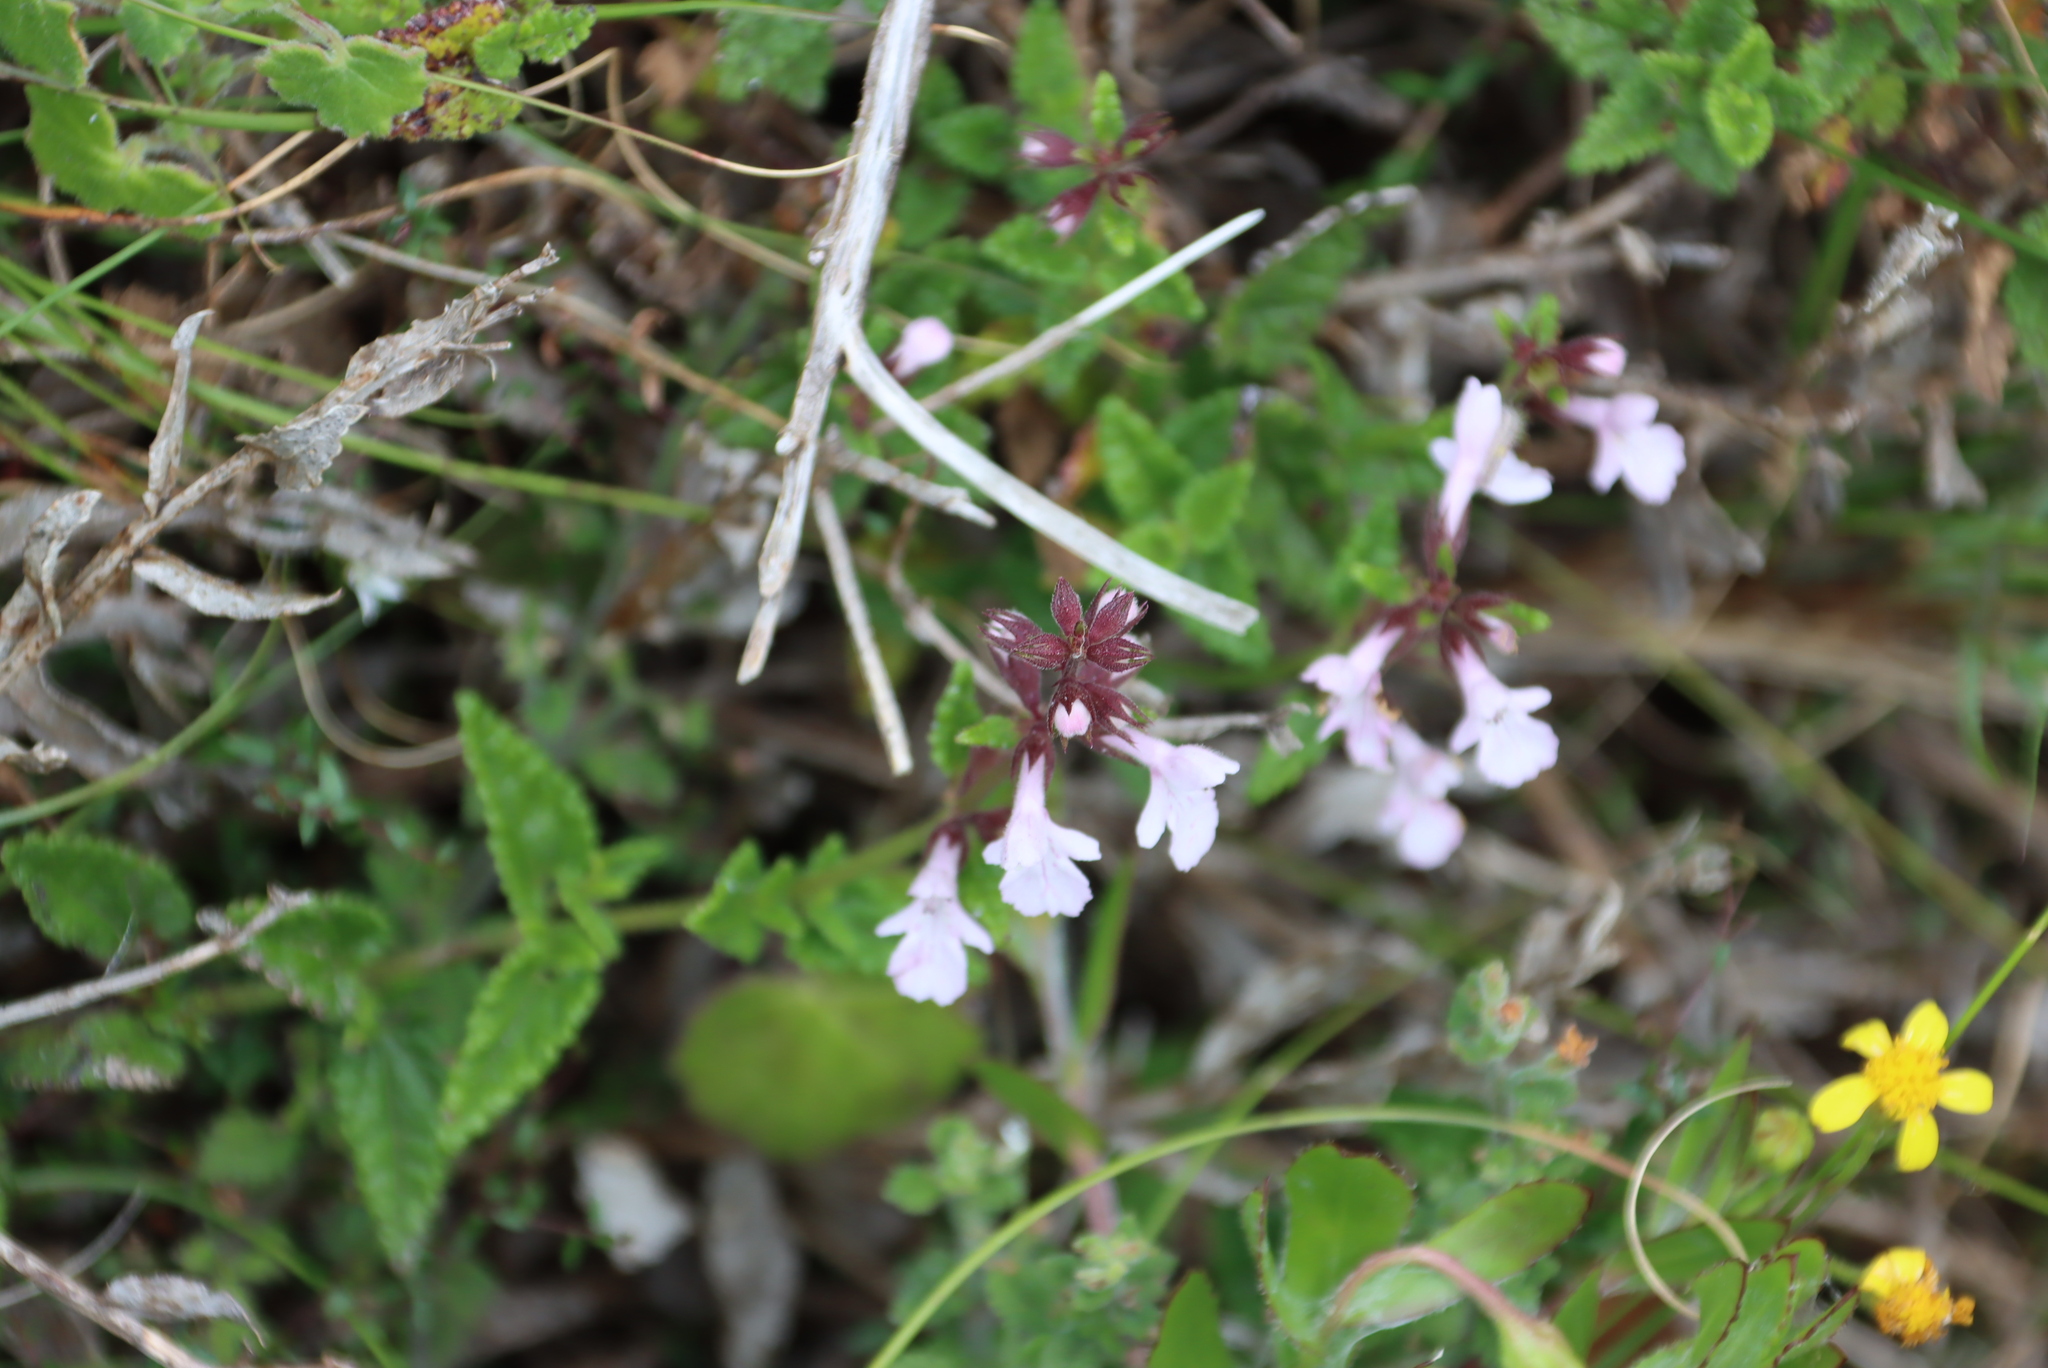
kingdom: Plantae
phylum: Tracheophyta
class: Magnoliopsida
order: Lamiales
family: Lamiaceae
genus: Stachys
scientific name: Stachys aethiopica
